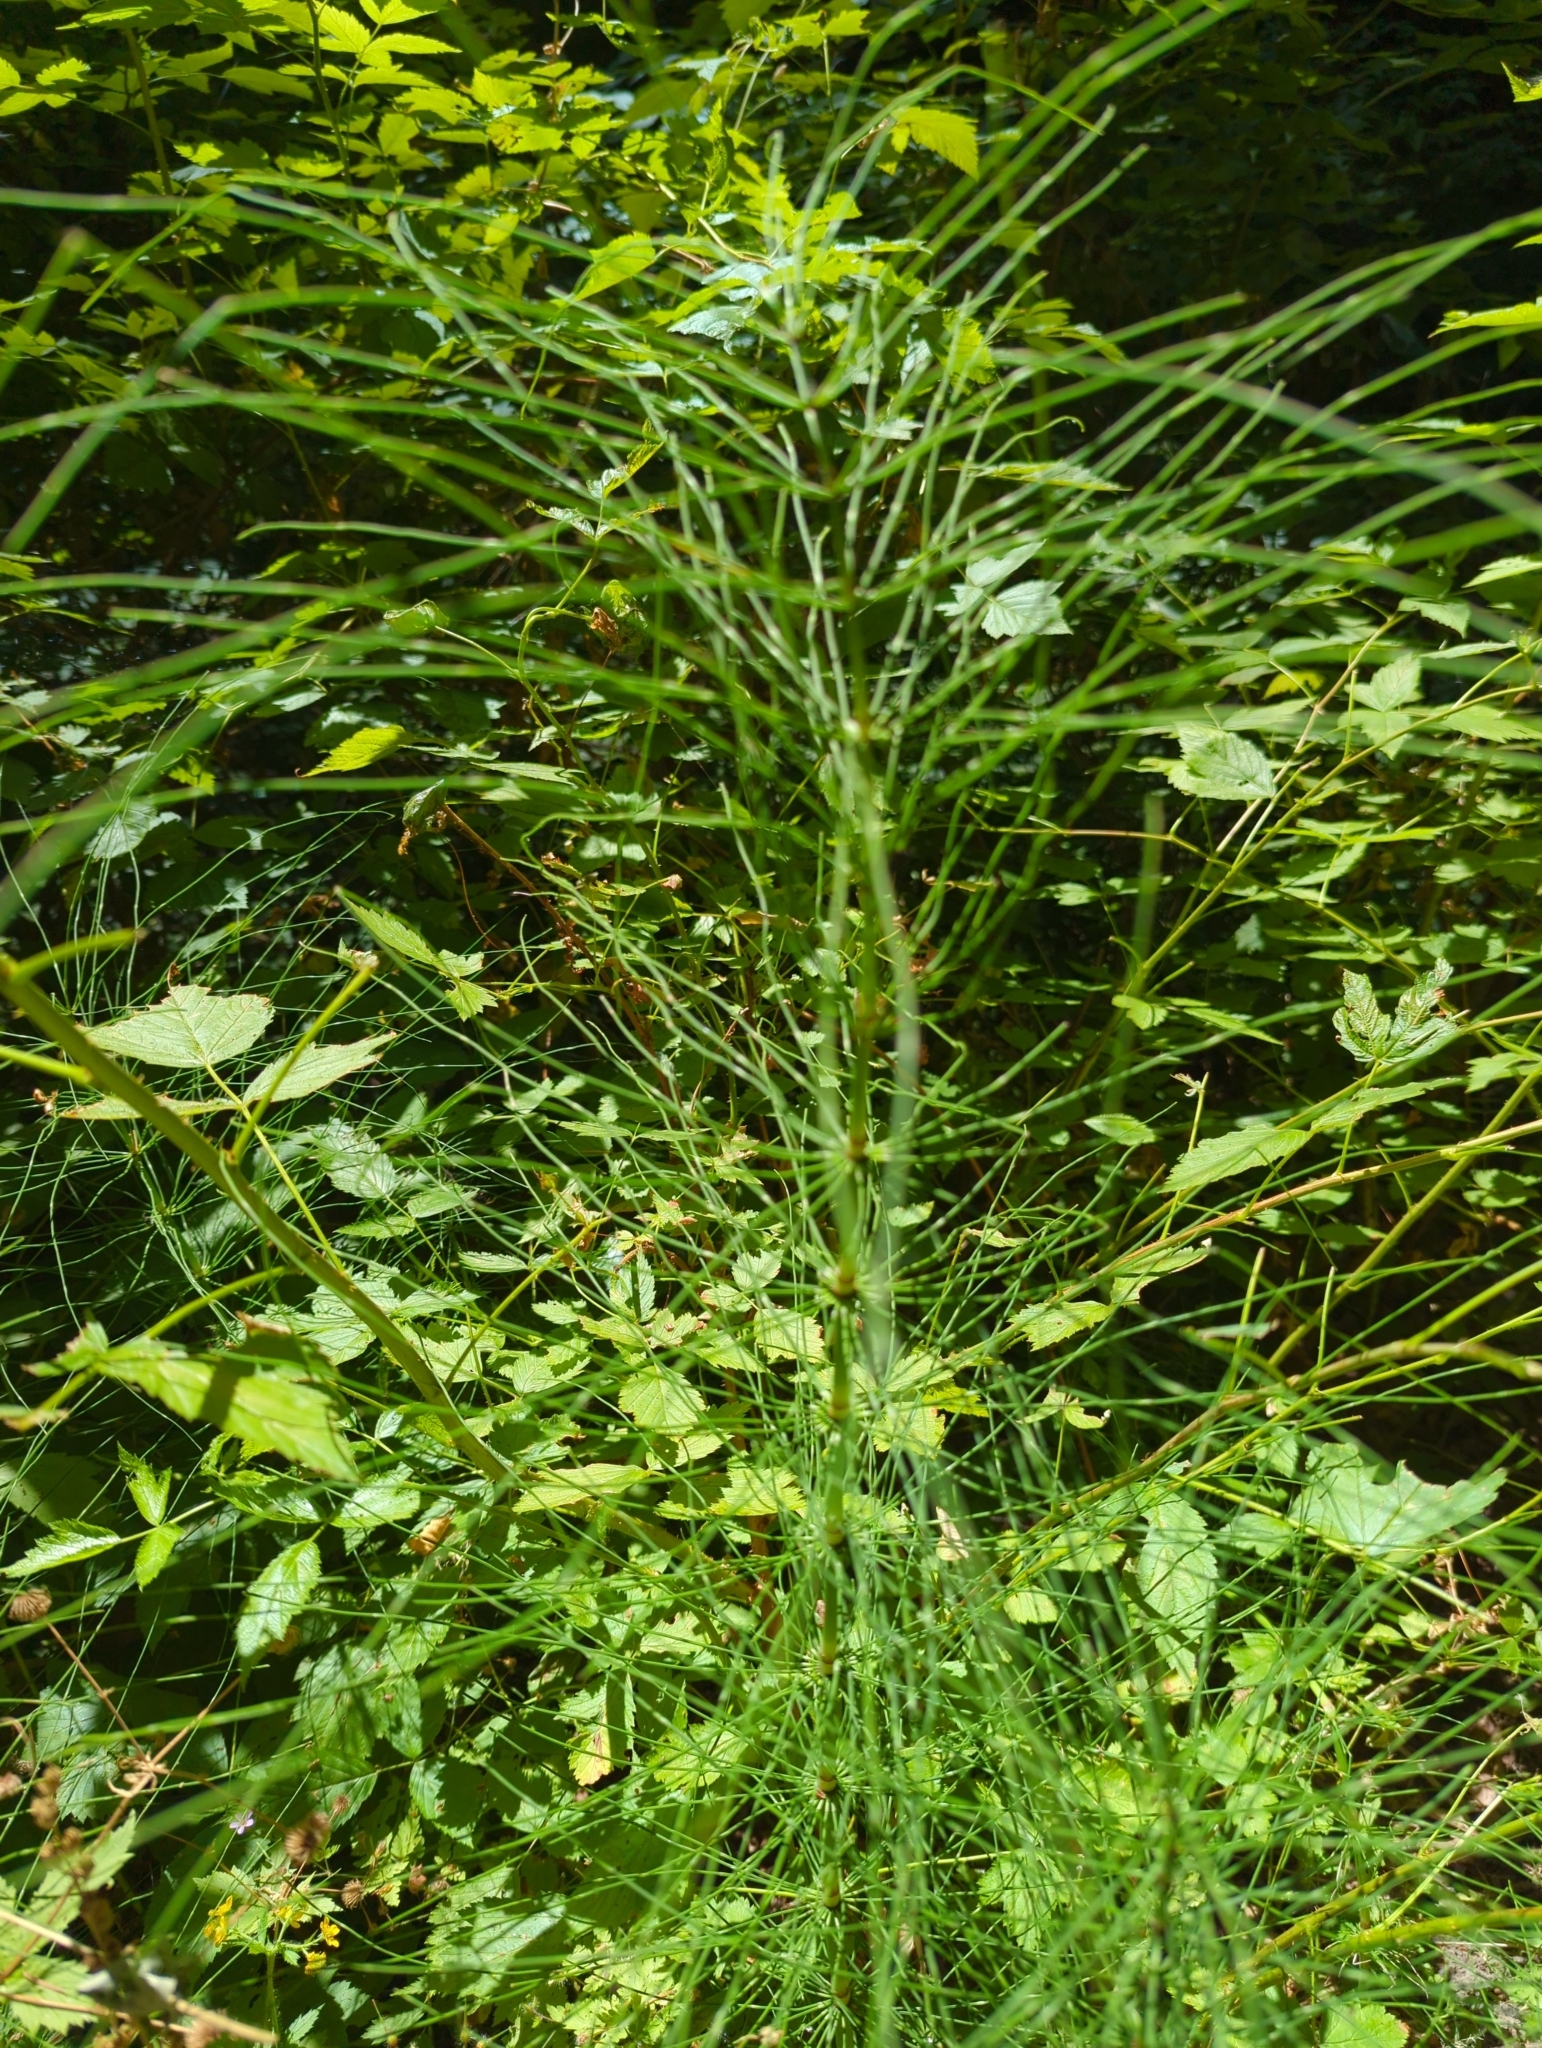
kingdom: Plantae
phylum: Tracheophyta
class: Polypodiopsida
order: Equisetales
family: Equisetaceae
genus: Equisetum
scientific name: Equisetum telmateia
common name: Great horsetail
